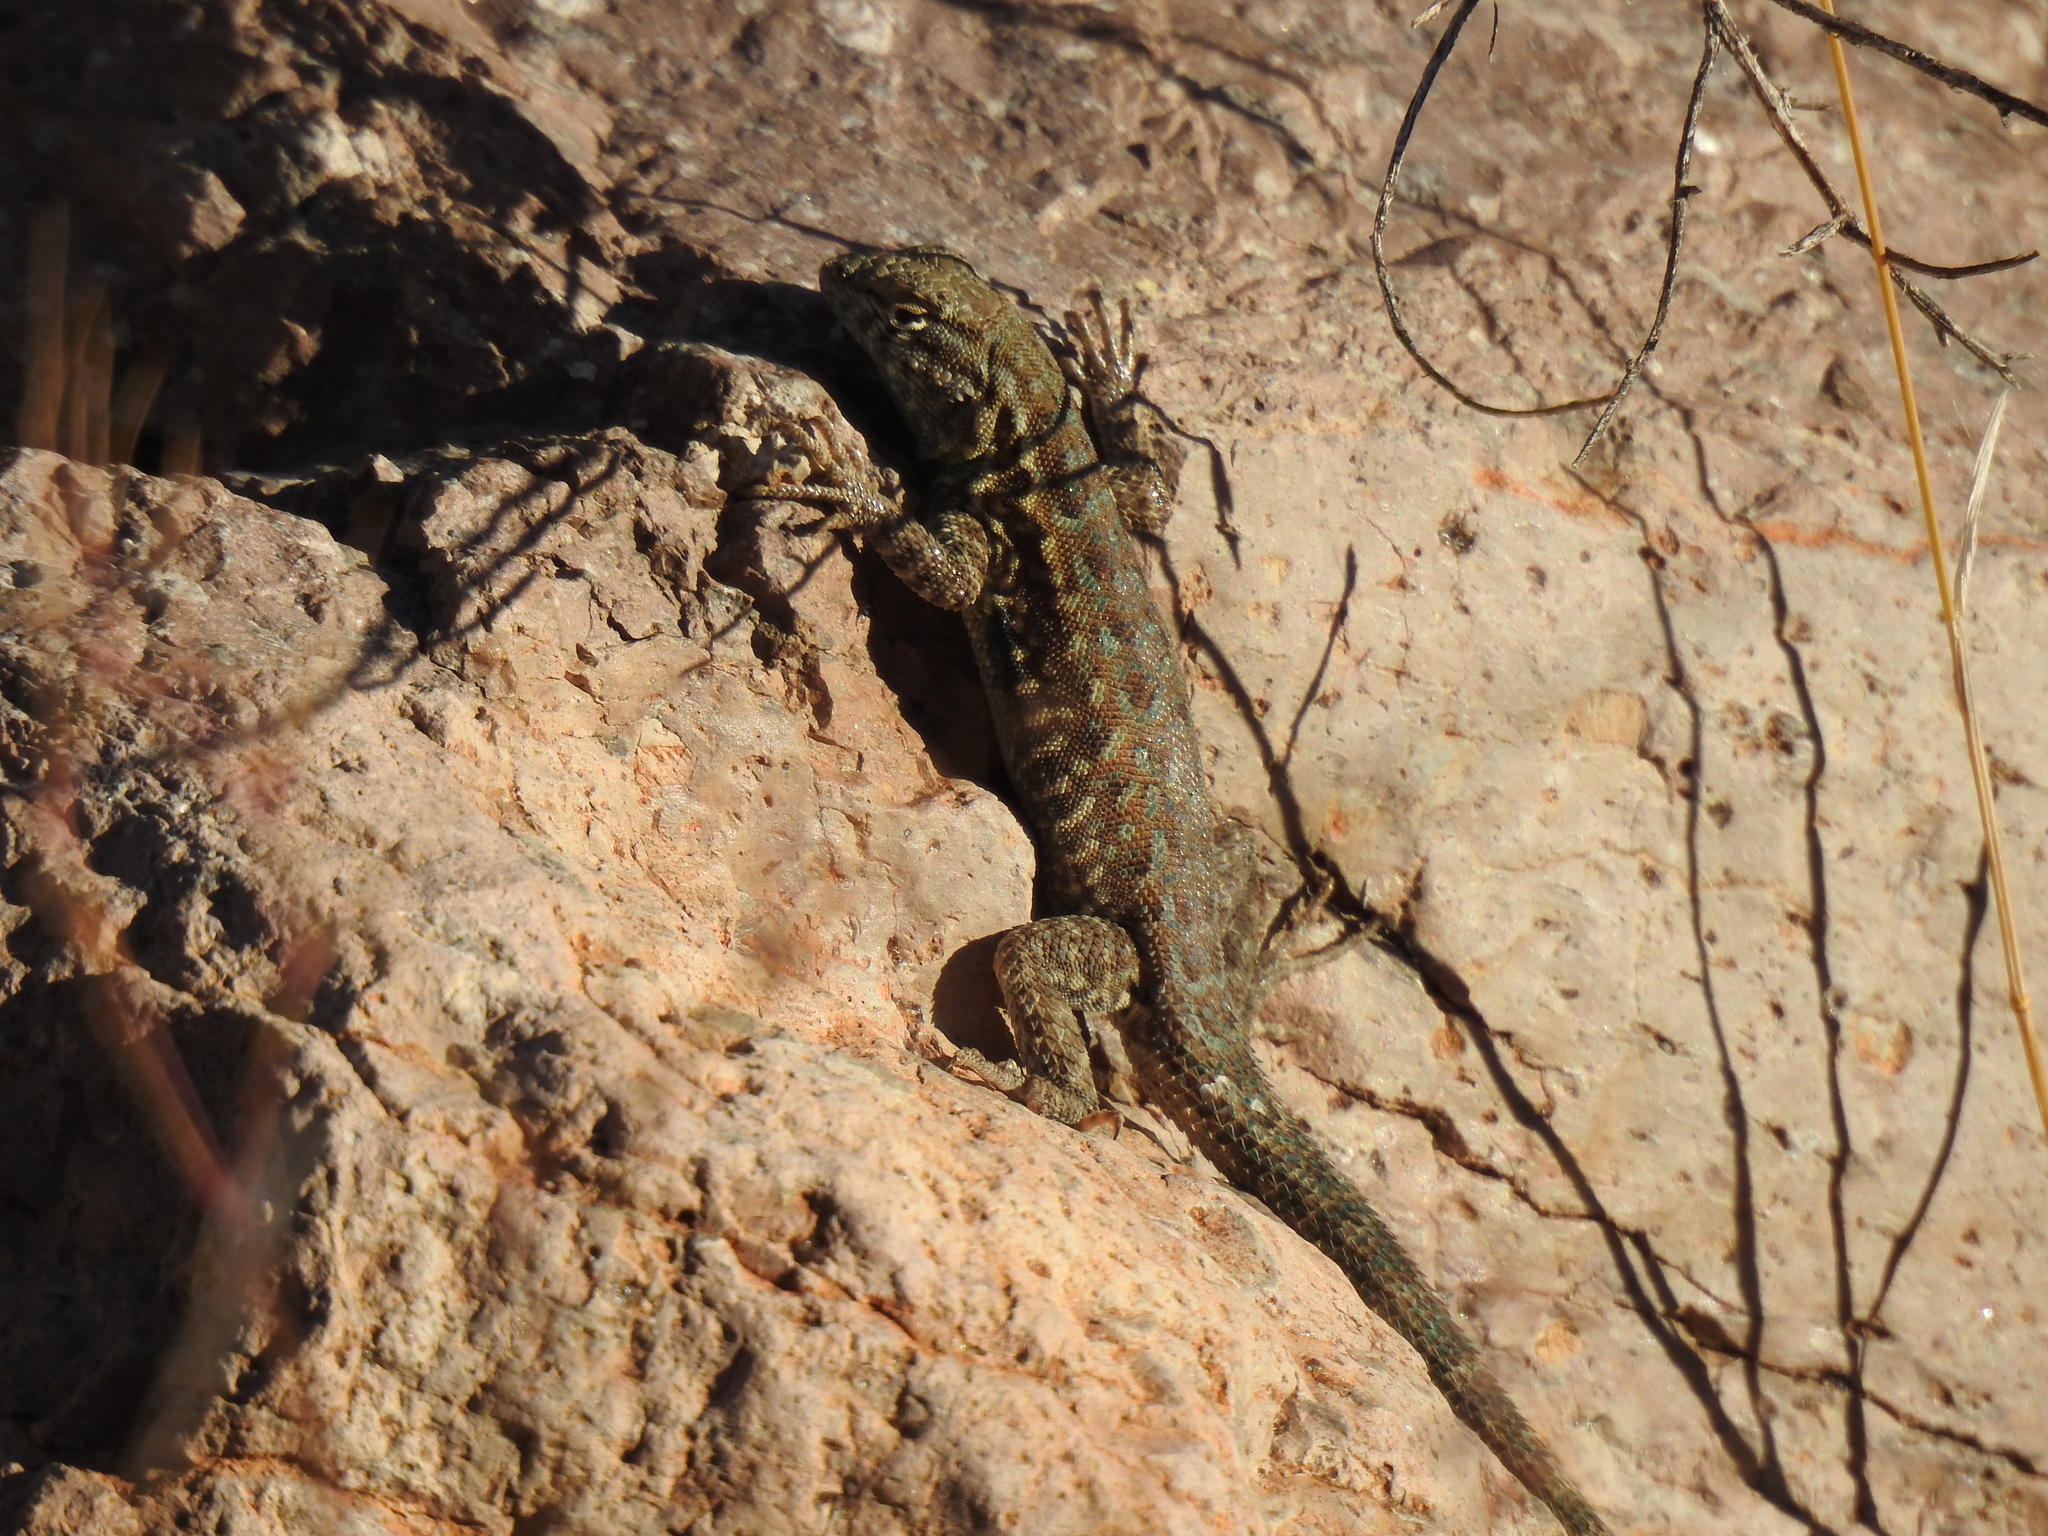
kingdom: Animalia
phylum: Chordata
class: Squamata
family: Phrynosomatidae
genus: Uta
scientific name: Uta stansburiana
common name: Side-blotched lizard
